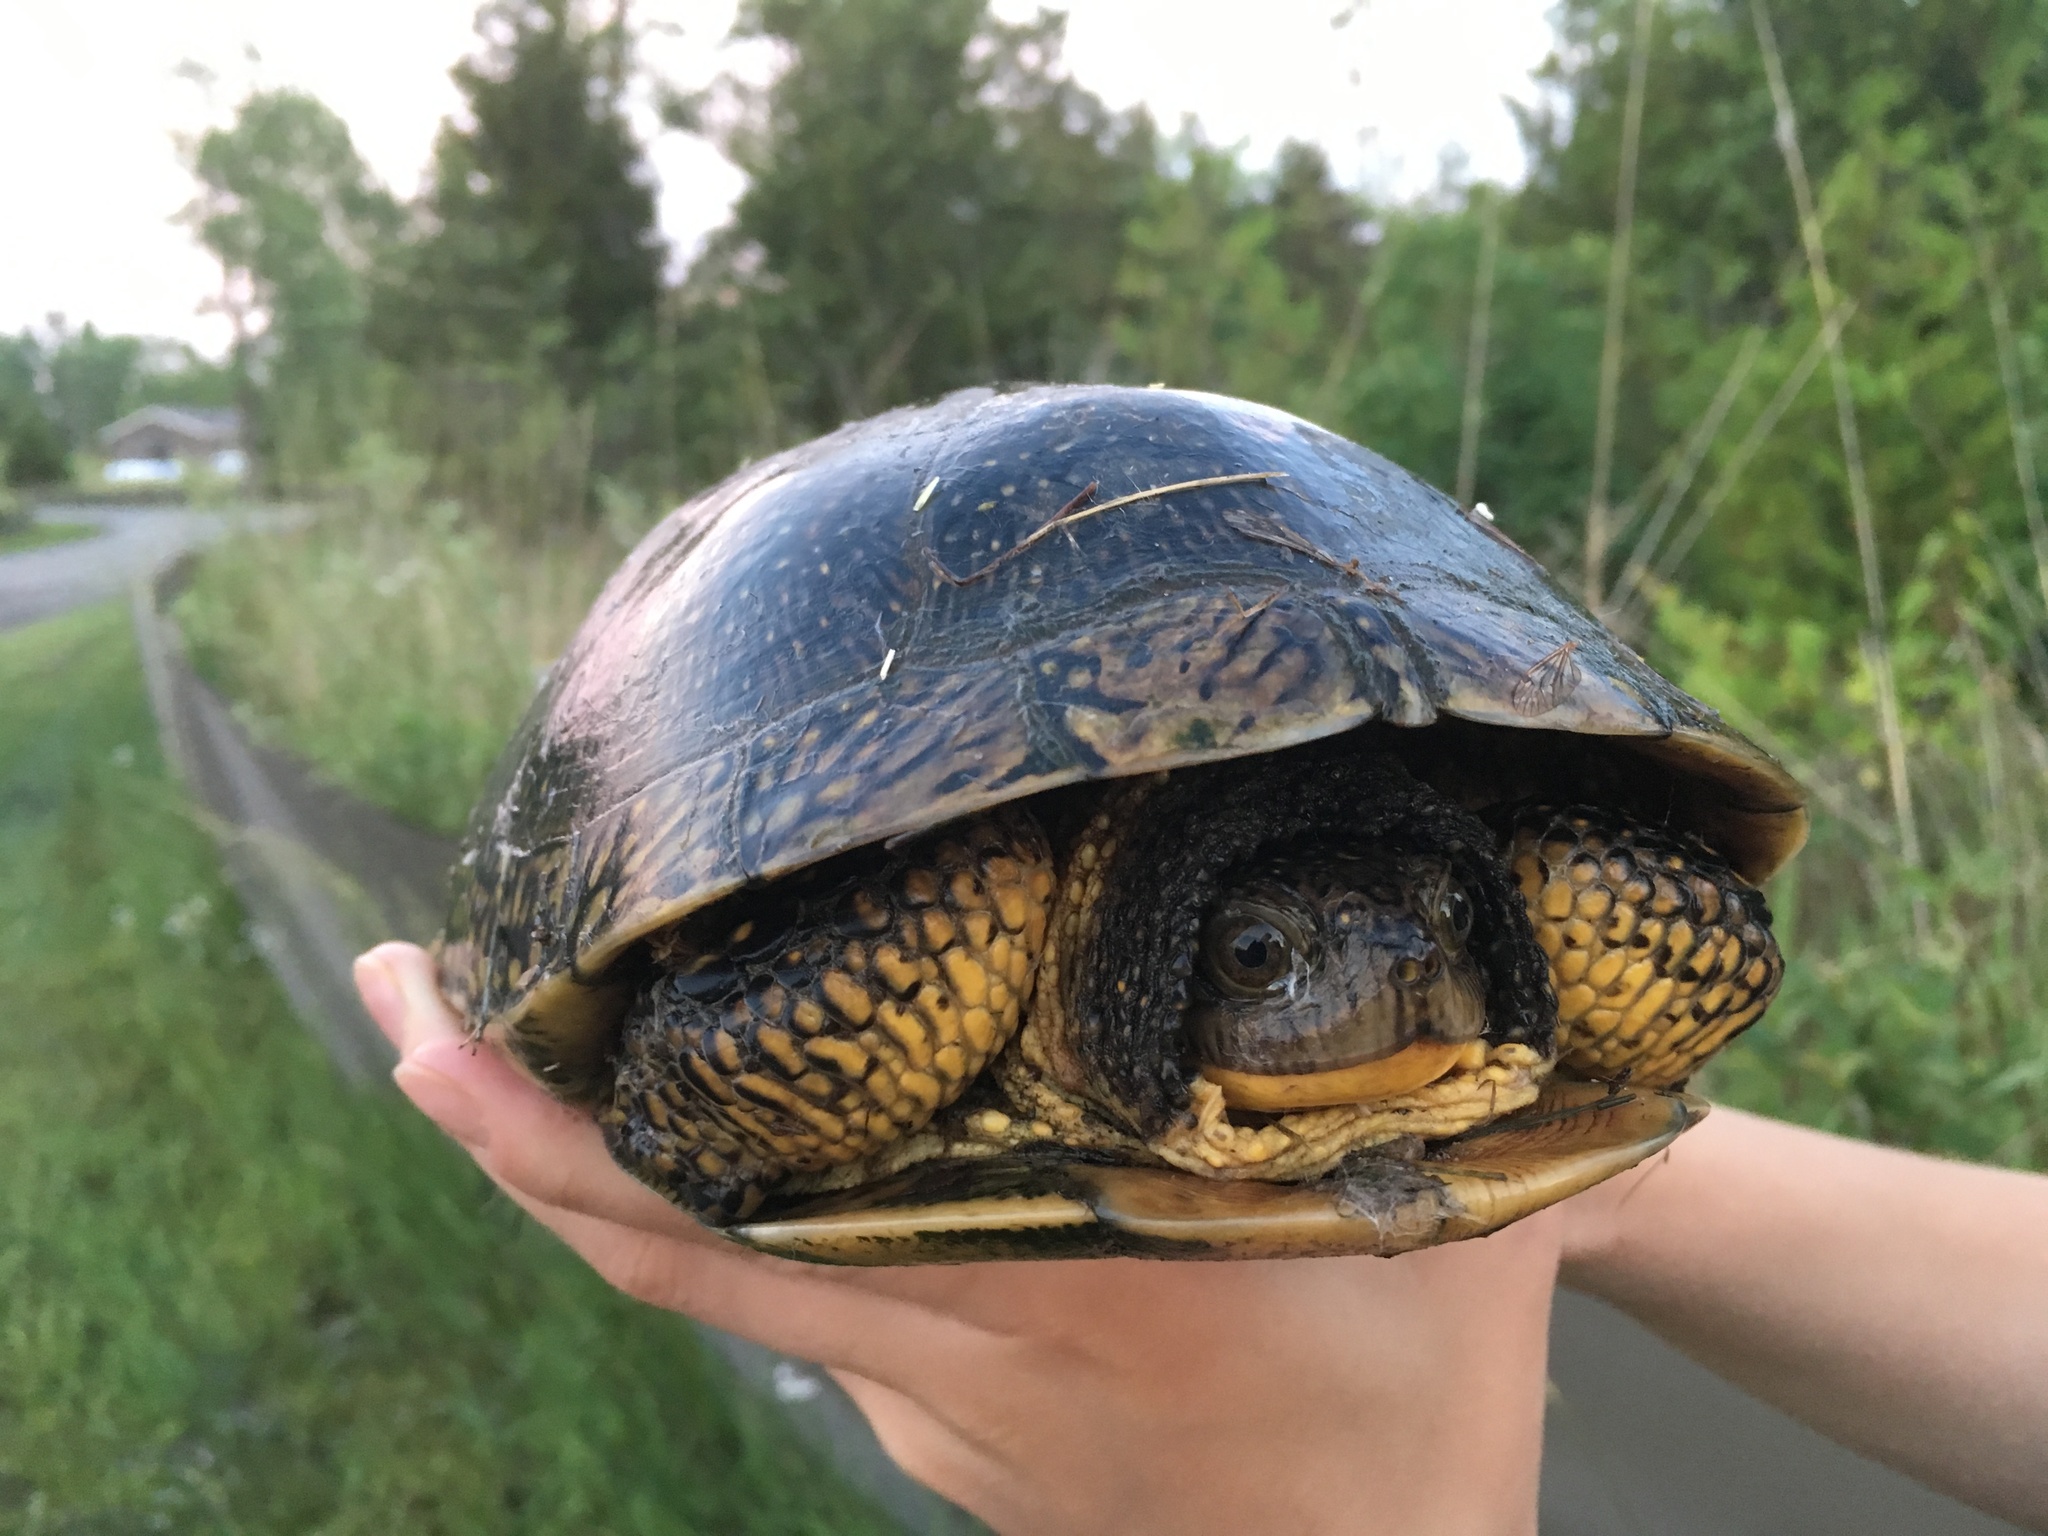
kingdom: Animalia
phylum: Chordata
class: Testudines
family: Emydidae
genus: Emys
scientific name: Emys blandingii
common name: Blanding's turtle
